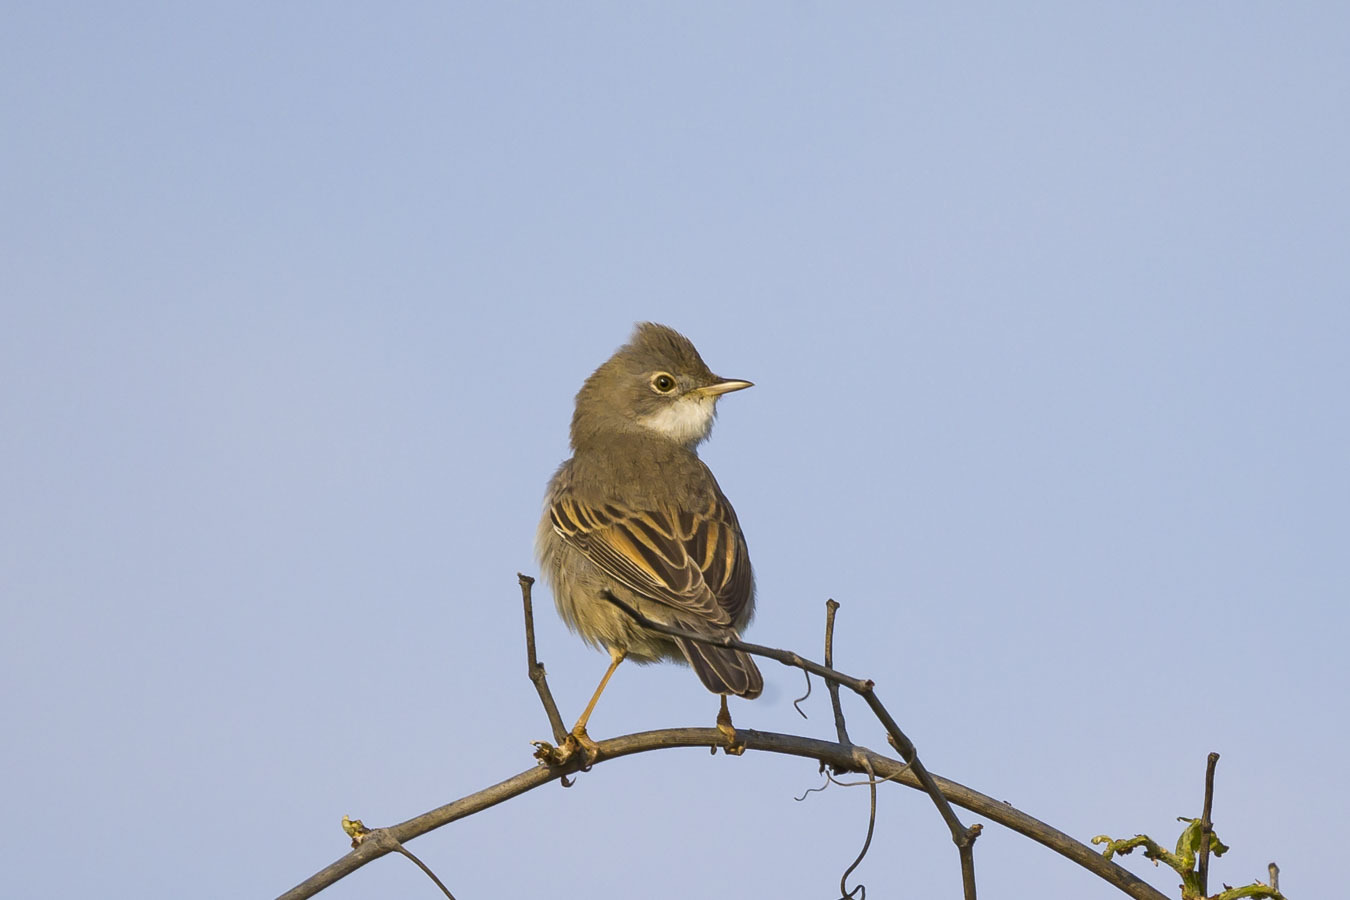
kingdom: Animalia
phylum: Chordata
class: Aves
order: Passeriformes
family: Sylviidae
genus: Sylvia
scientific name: Sylvia communis
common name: Common whitethroat
